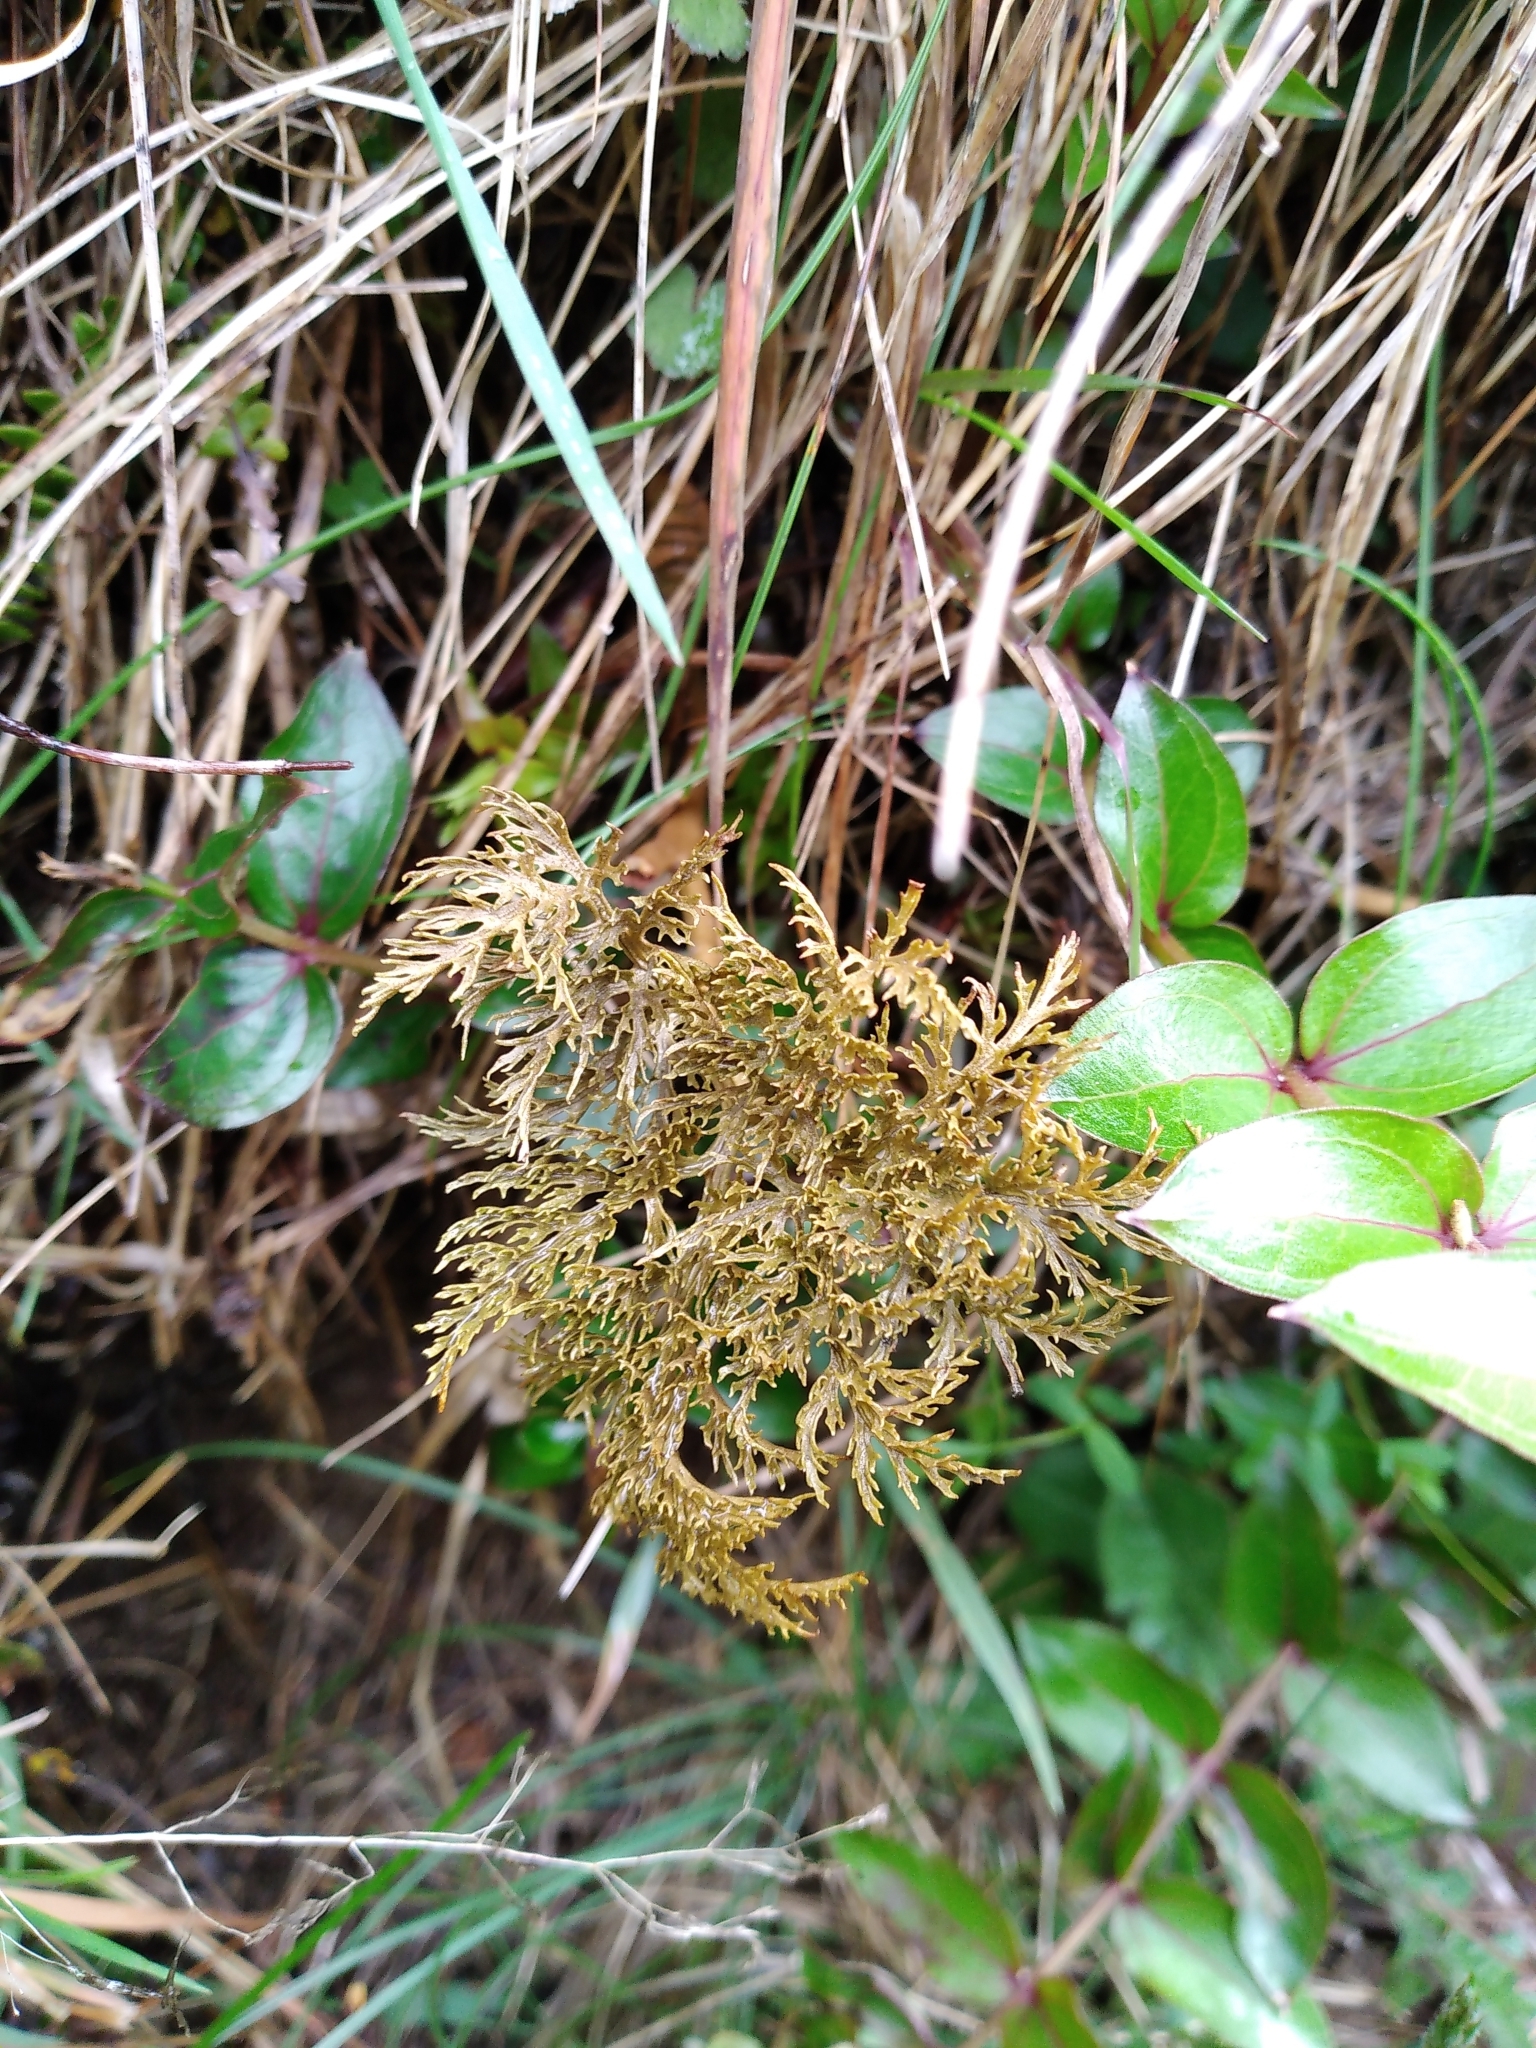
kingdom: Plantae
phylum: Tracheophyta
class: Polypodiopsida
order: Ophioglossales
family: Ophioglossaceae
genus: Sceptridium
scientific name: Sceptridium biforme
